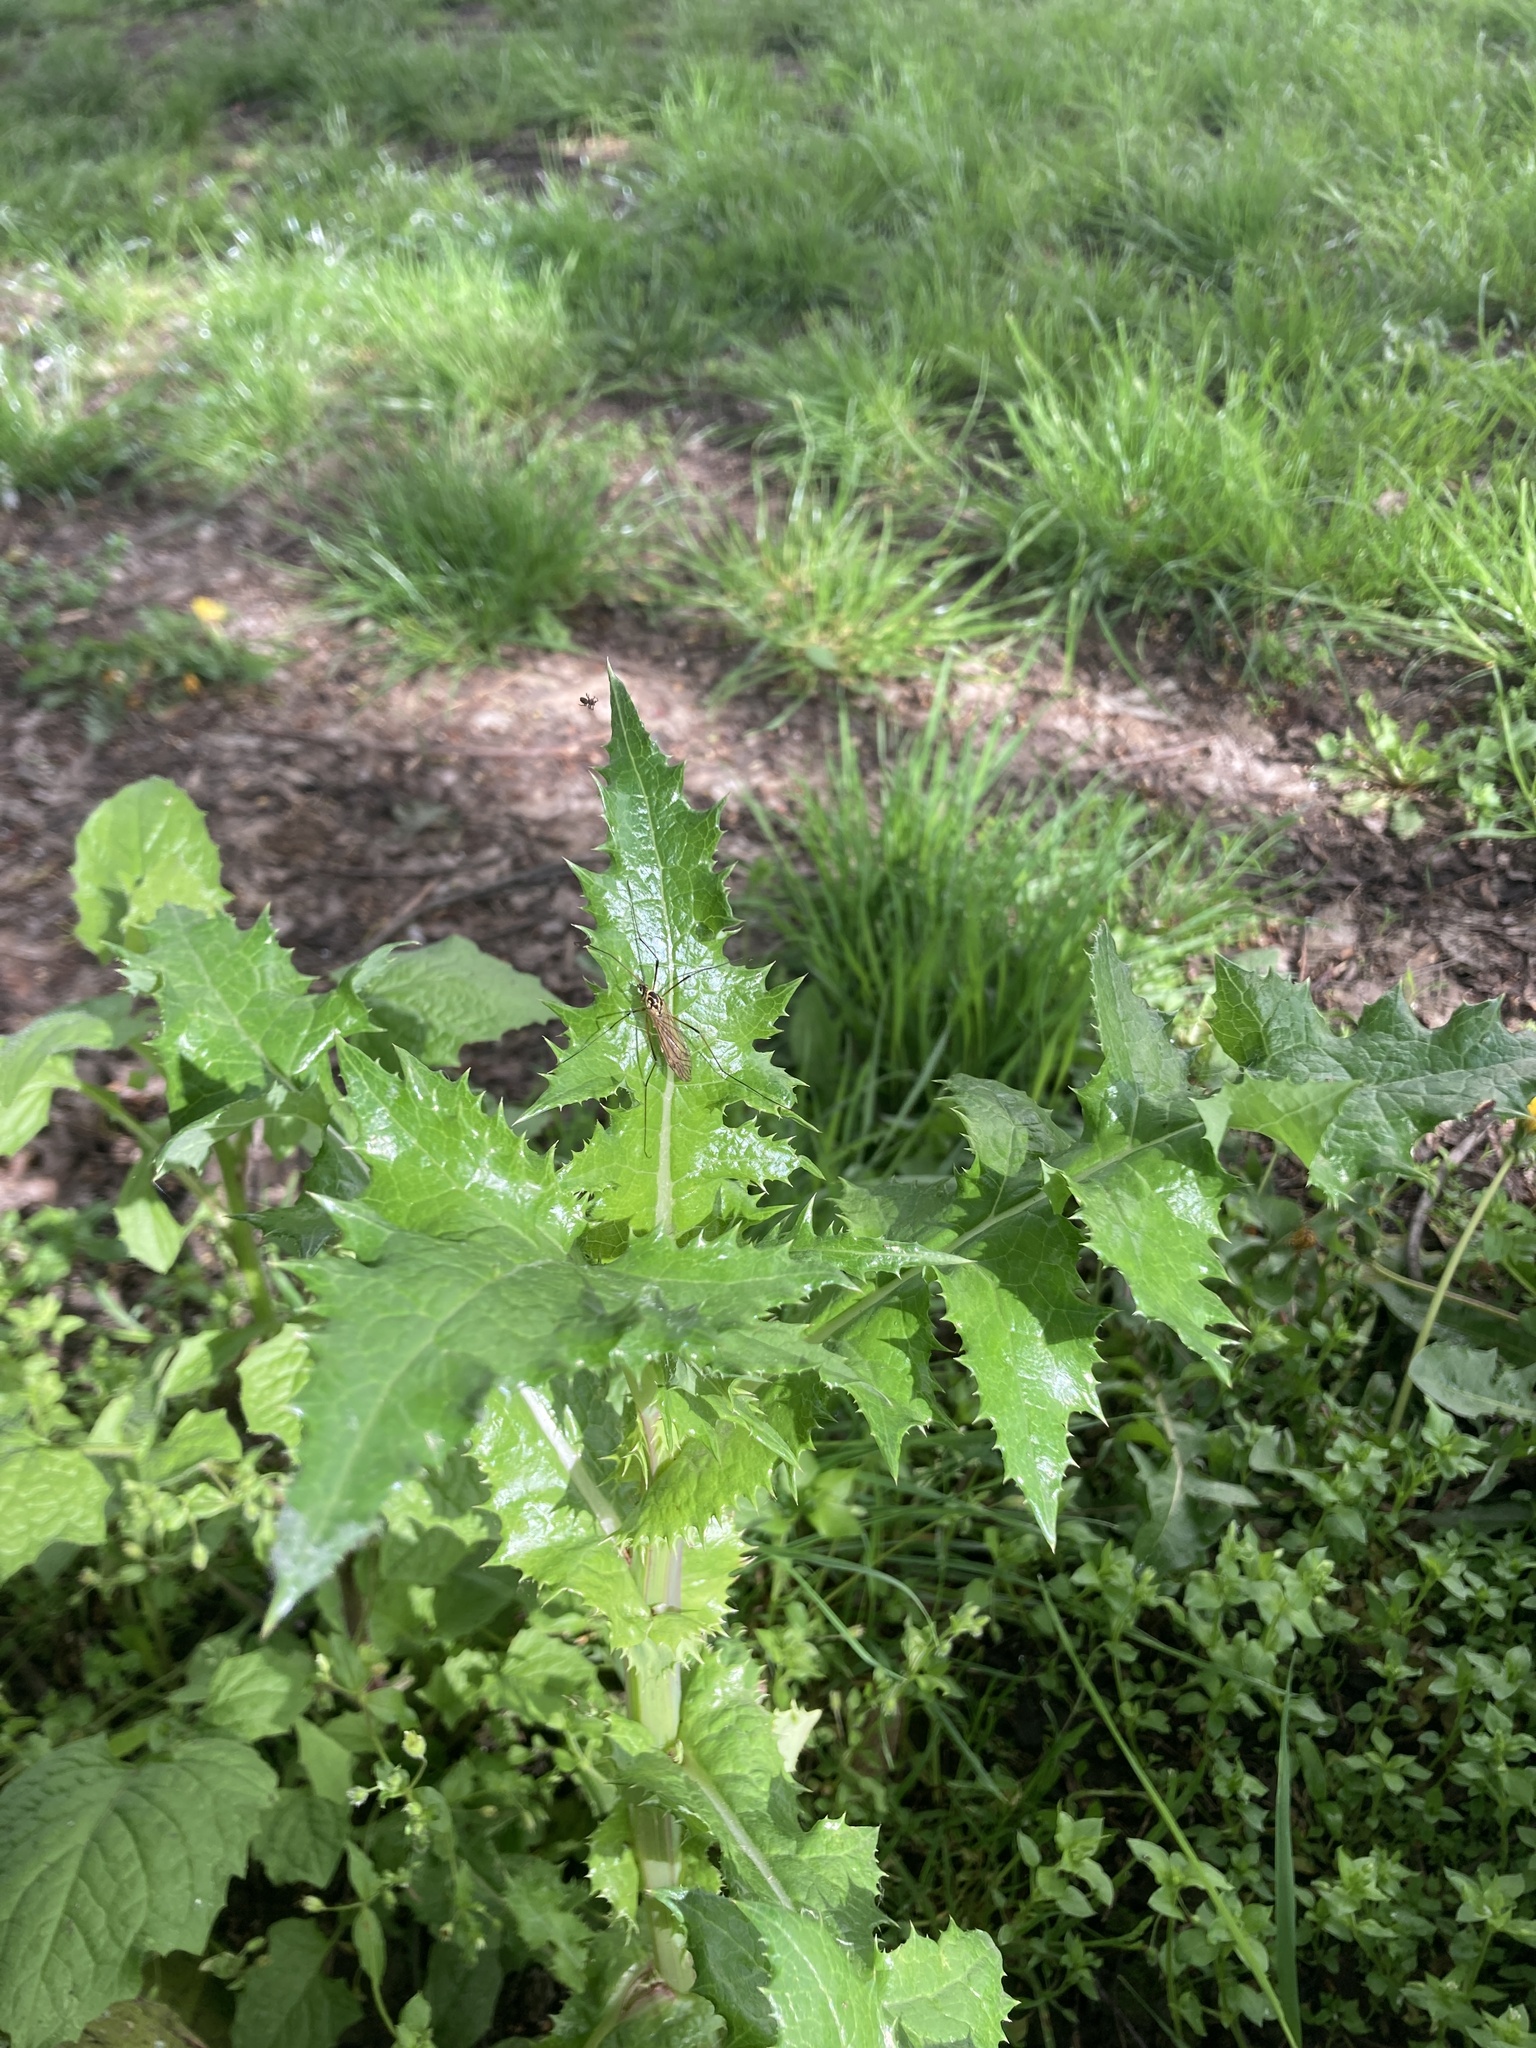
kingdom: Animalia
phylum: Arthropoda
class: Insecta
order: Diptera
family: Tipulidae
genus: Nephrotoma
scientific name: Nephrotoma appendiculata
